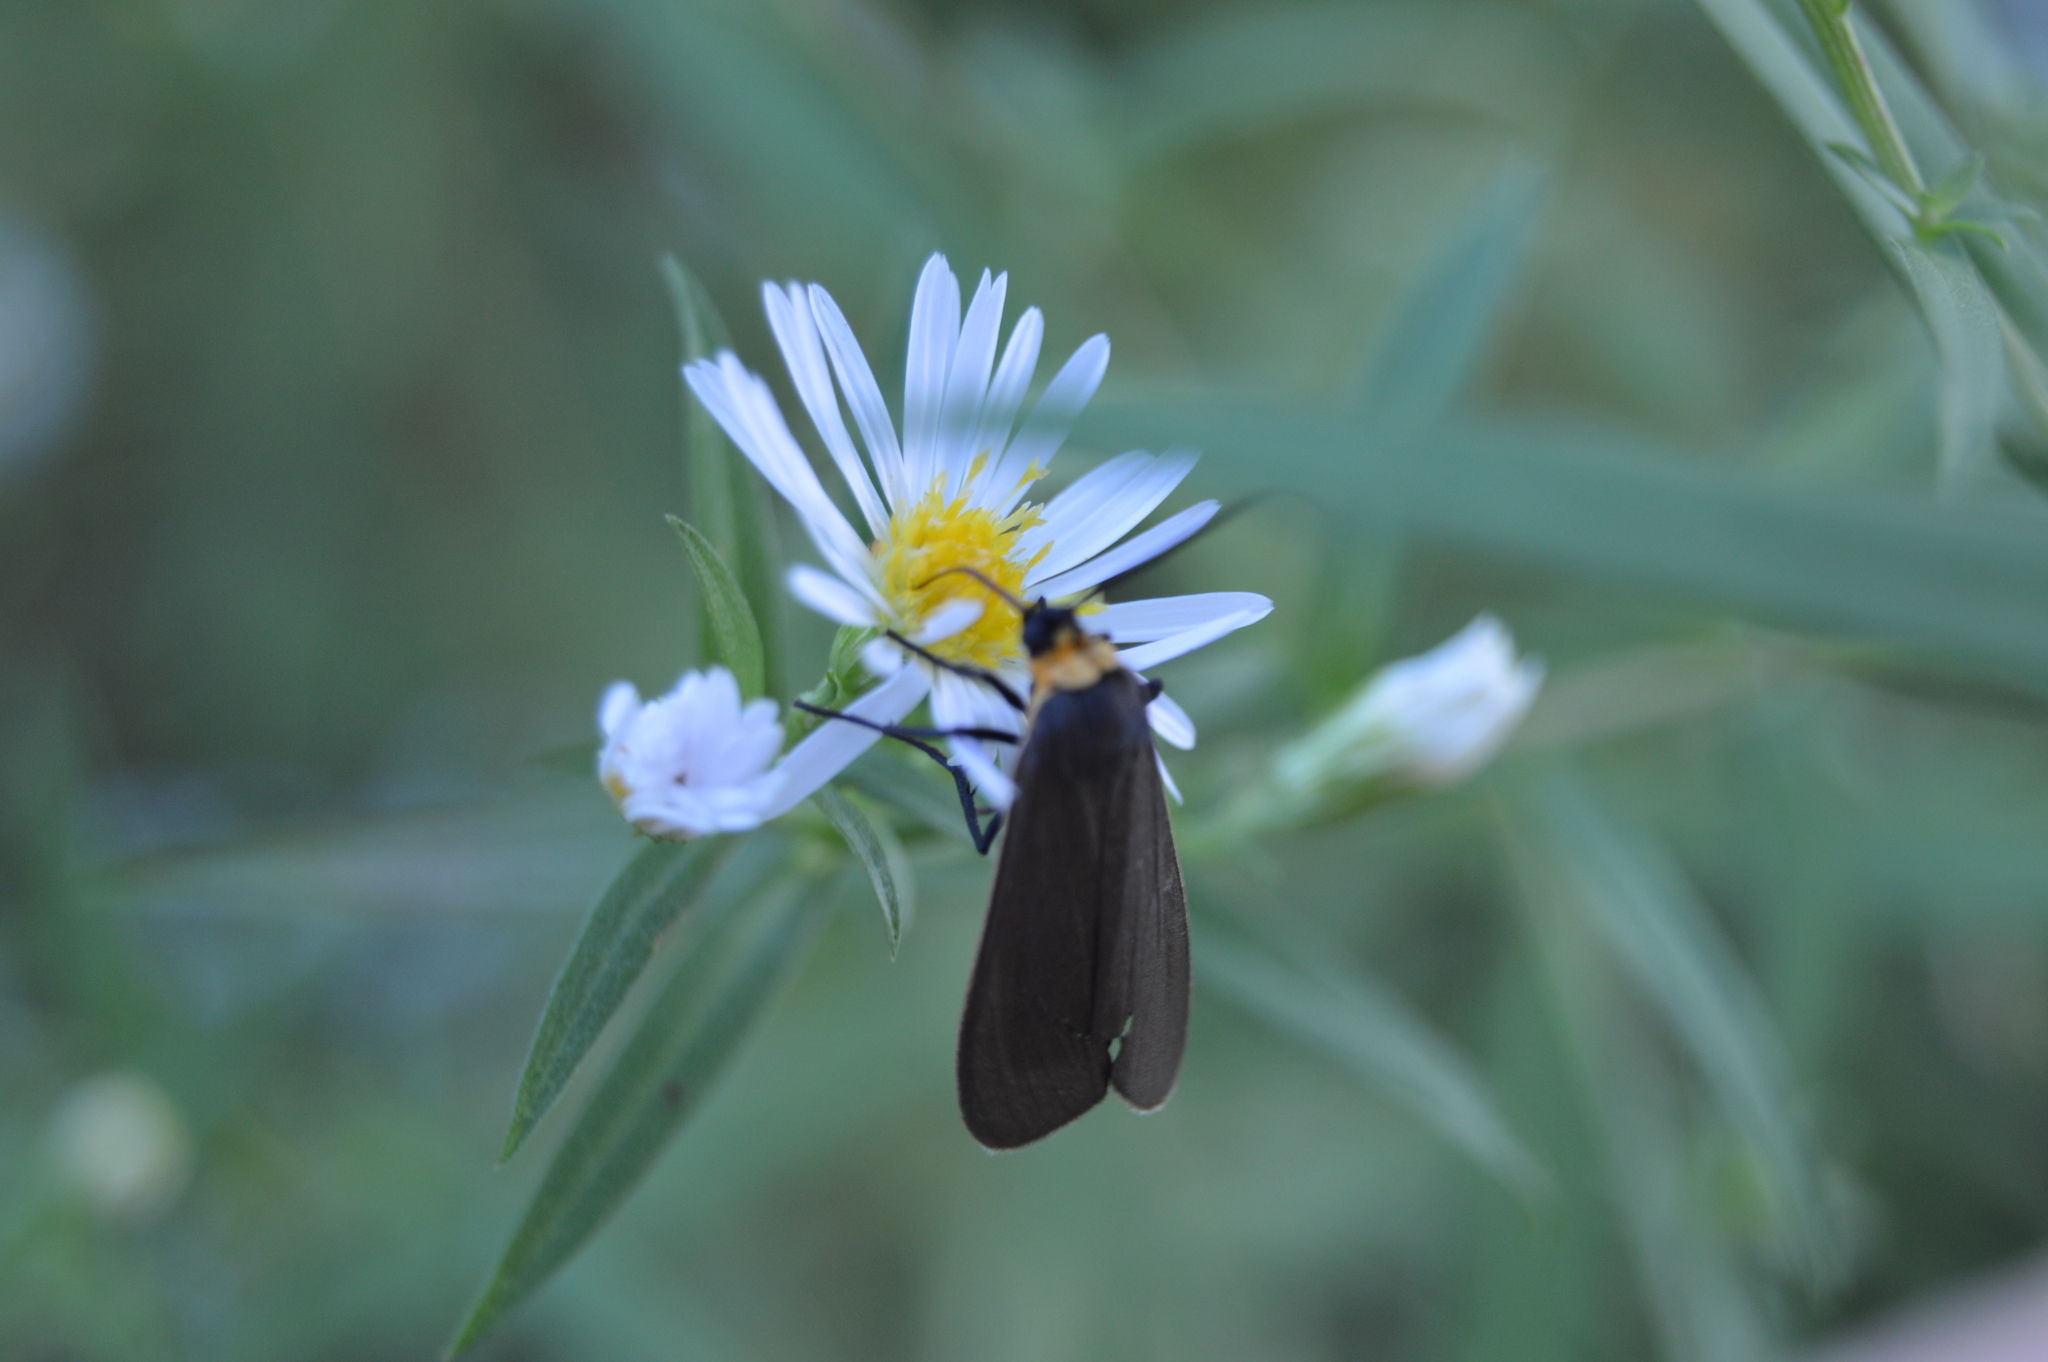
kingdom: Animalia
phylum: Arthropoda
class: Insecta
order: Lepidoptera
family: Erebidae
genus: Cisseps
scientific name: Cisseps fulvicollis
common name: Yellow-collared scape moth
